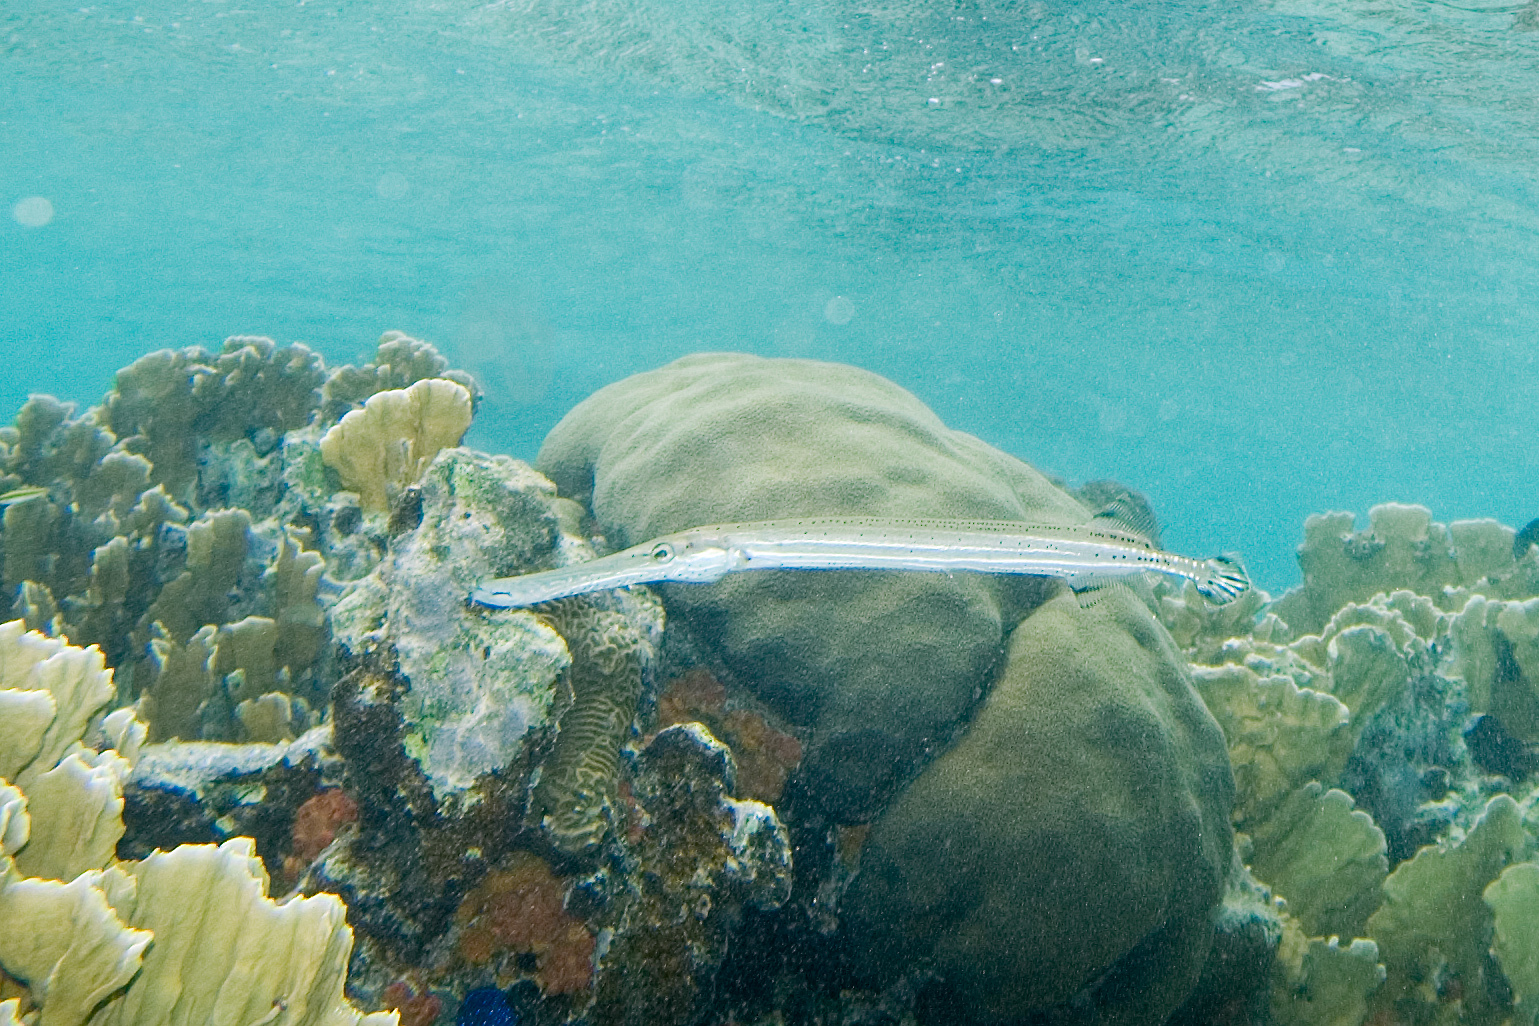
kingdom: Animalia
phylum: Chordata
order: Syngnathiformes
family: Aulostomidae
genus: Aulostomus
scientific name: Aulostomus maculatus
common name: West atlantic trumpetfish
